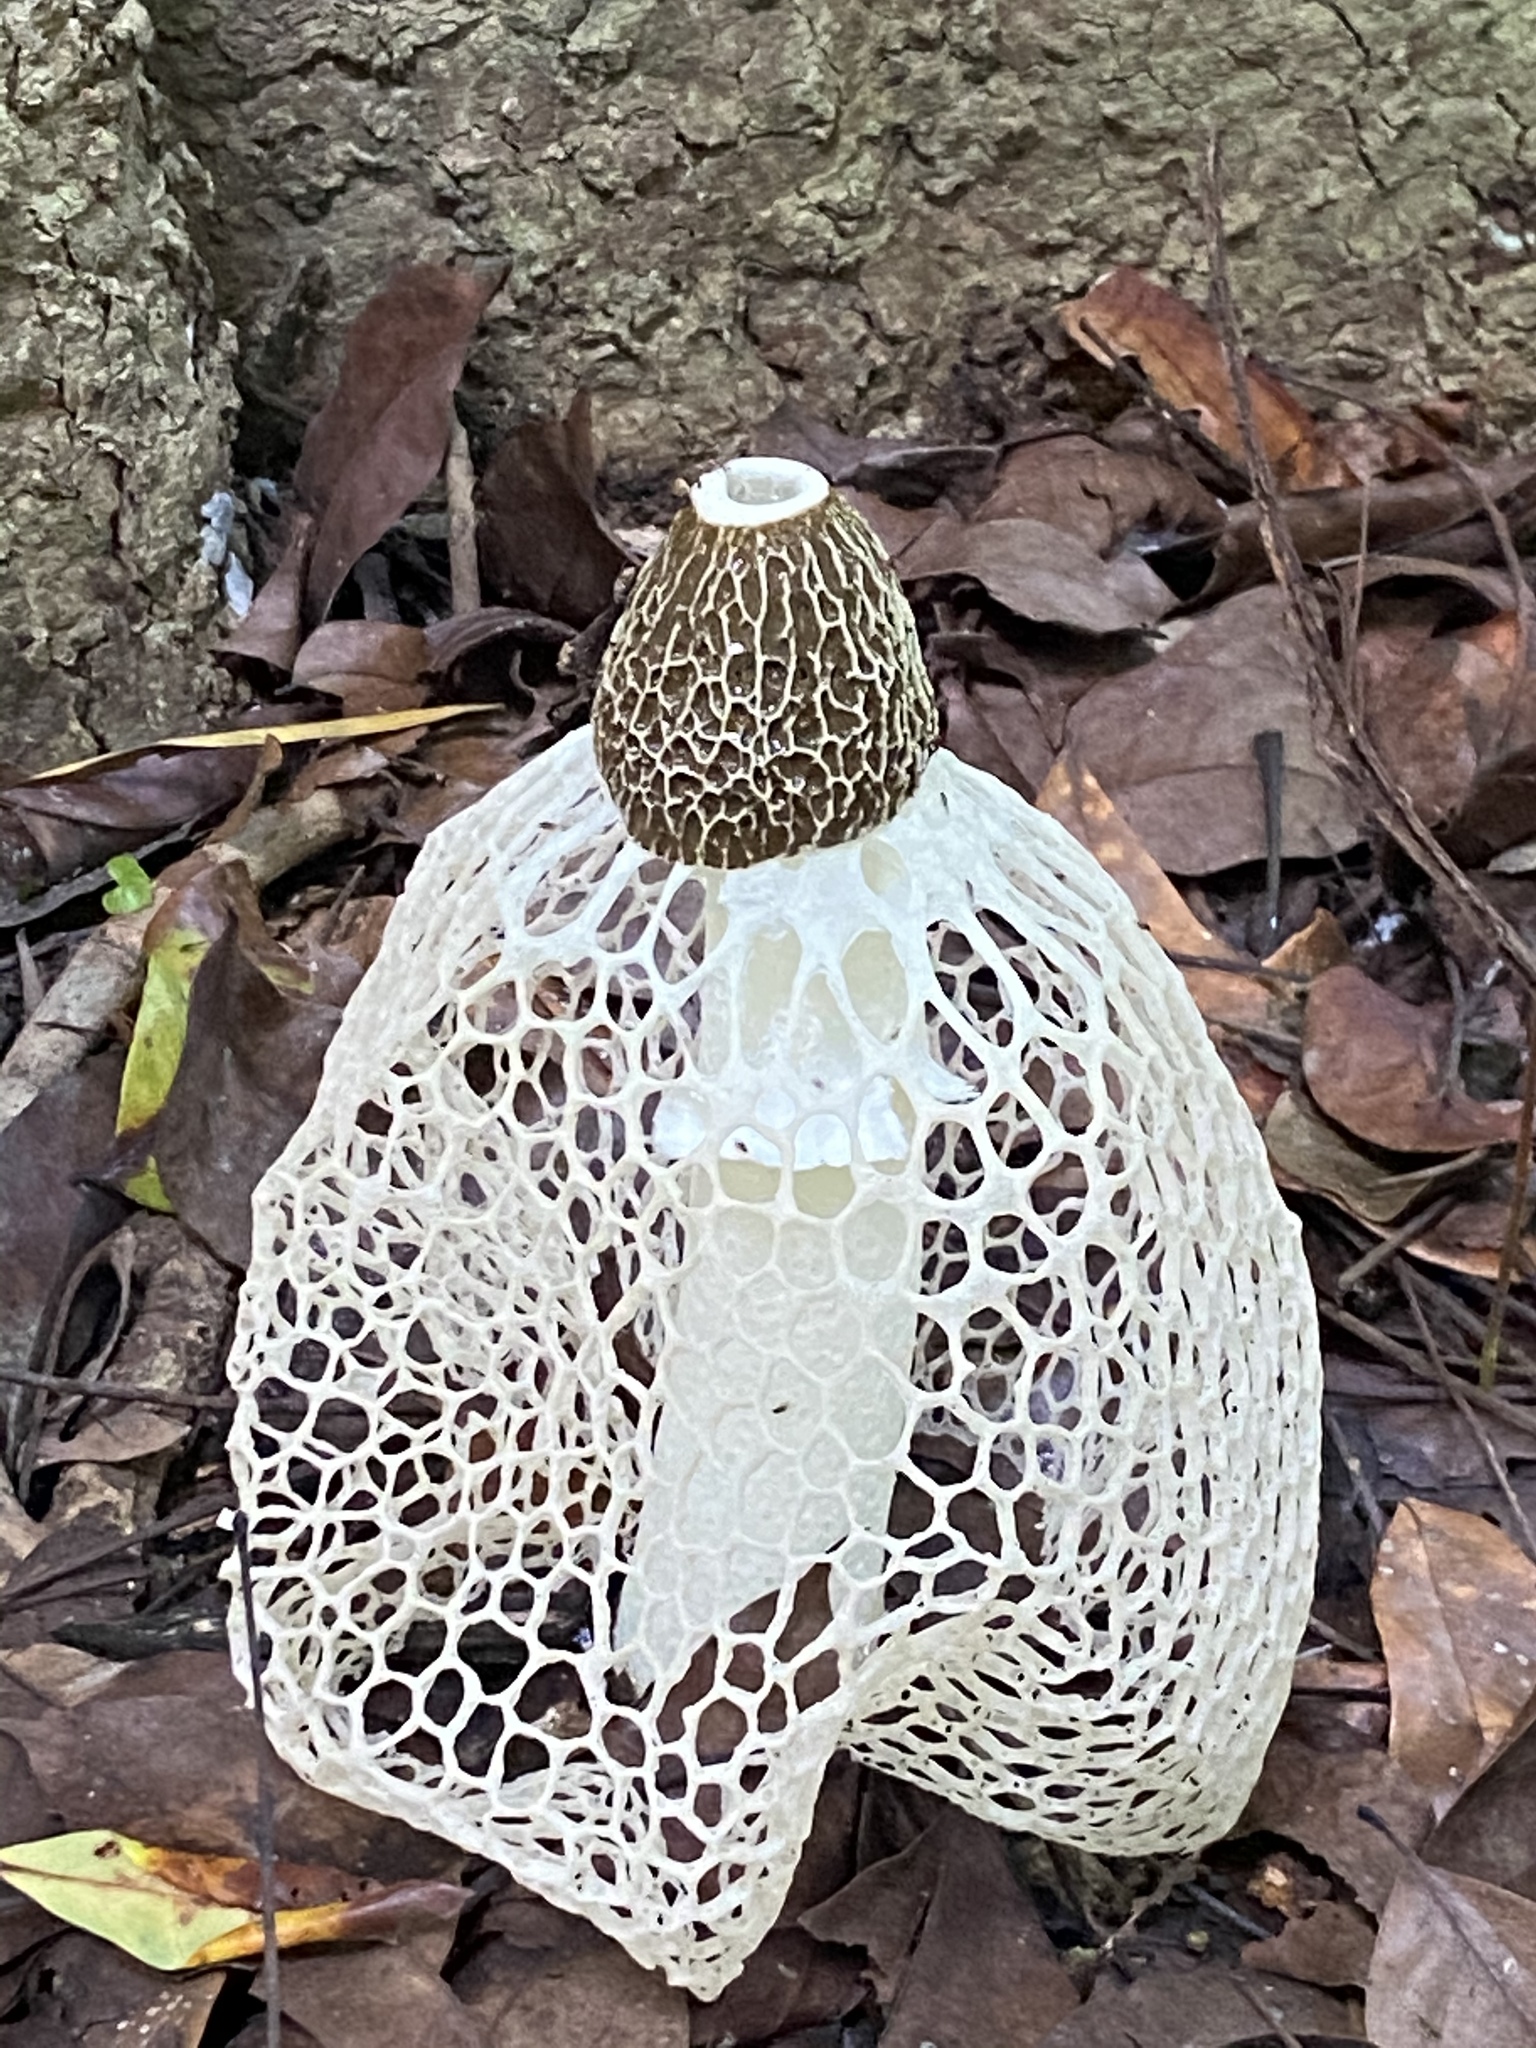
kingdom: Fungi
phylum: Basidiomycota
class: Agaricomycetes
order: Phallales
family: Phallaceae
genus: Phallus
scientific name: Phallus indusiatus
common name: Bridal veil stinkhorn
